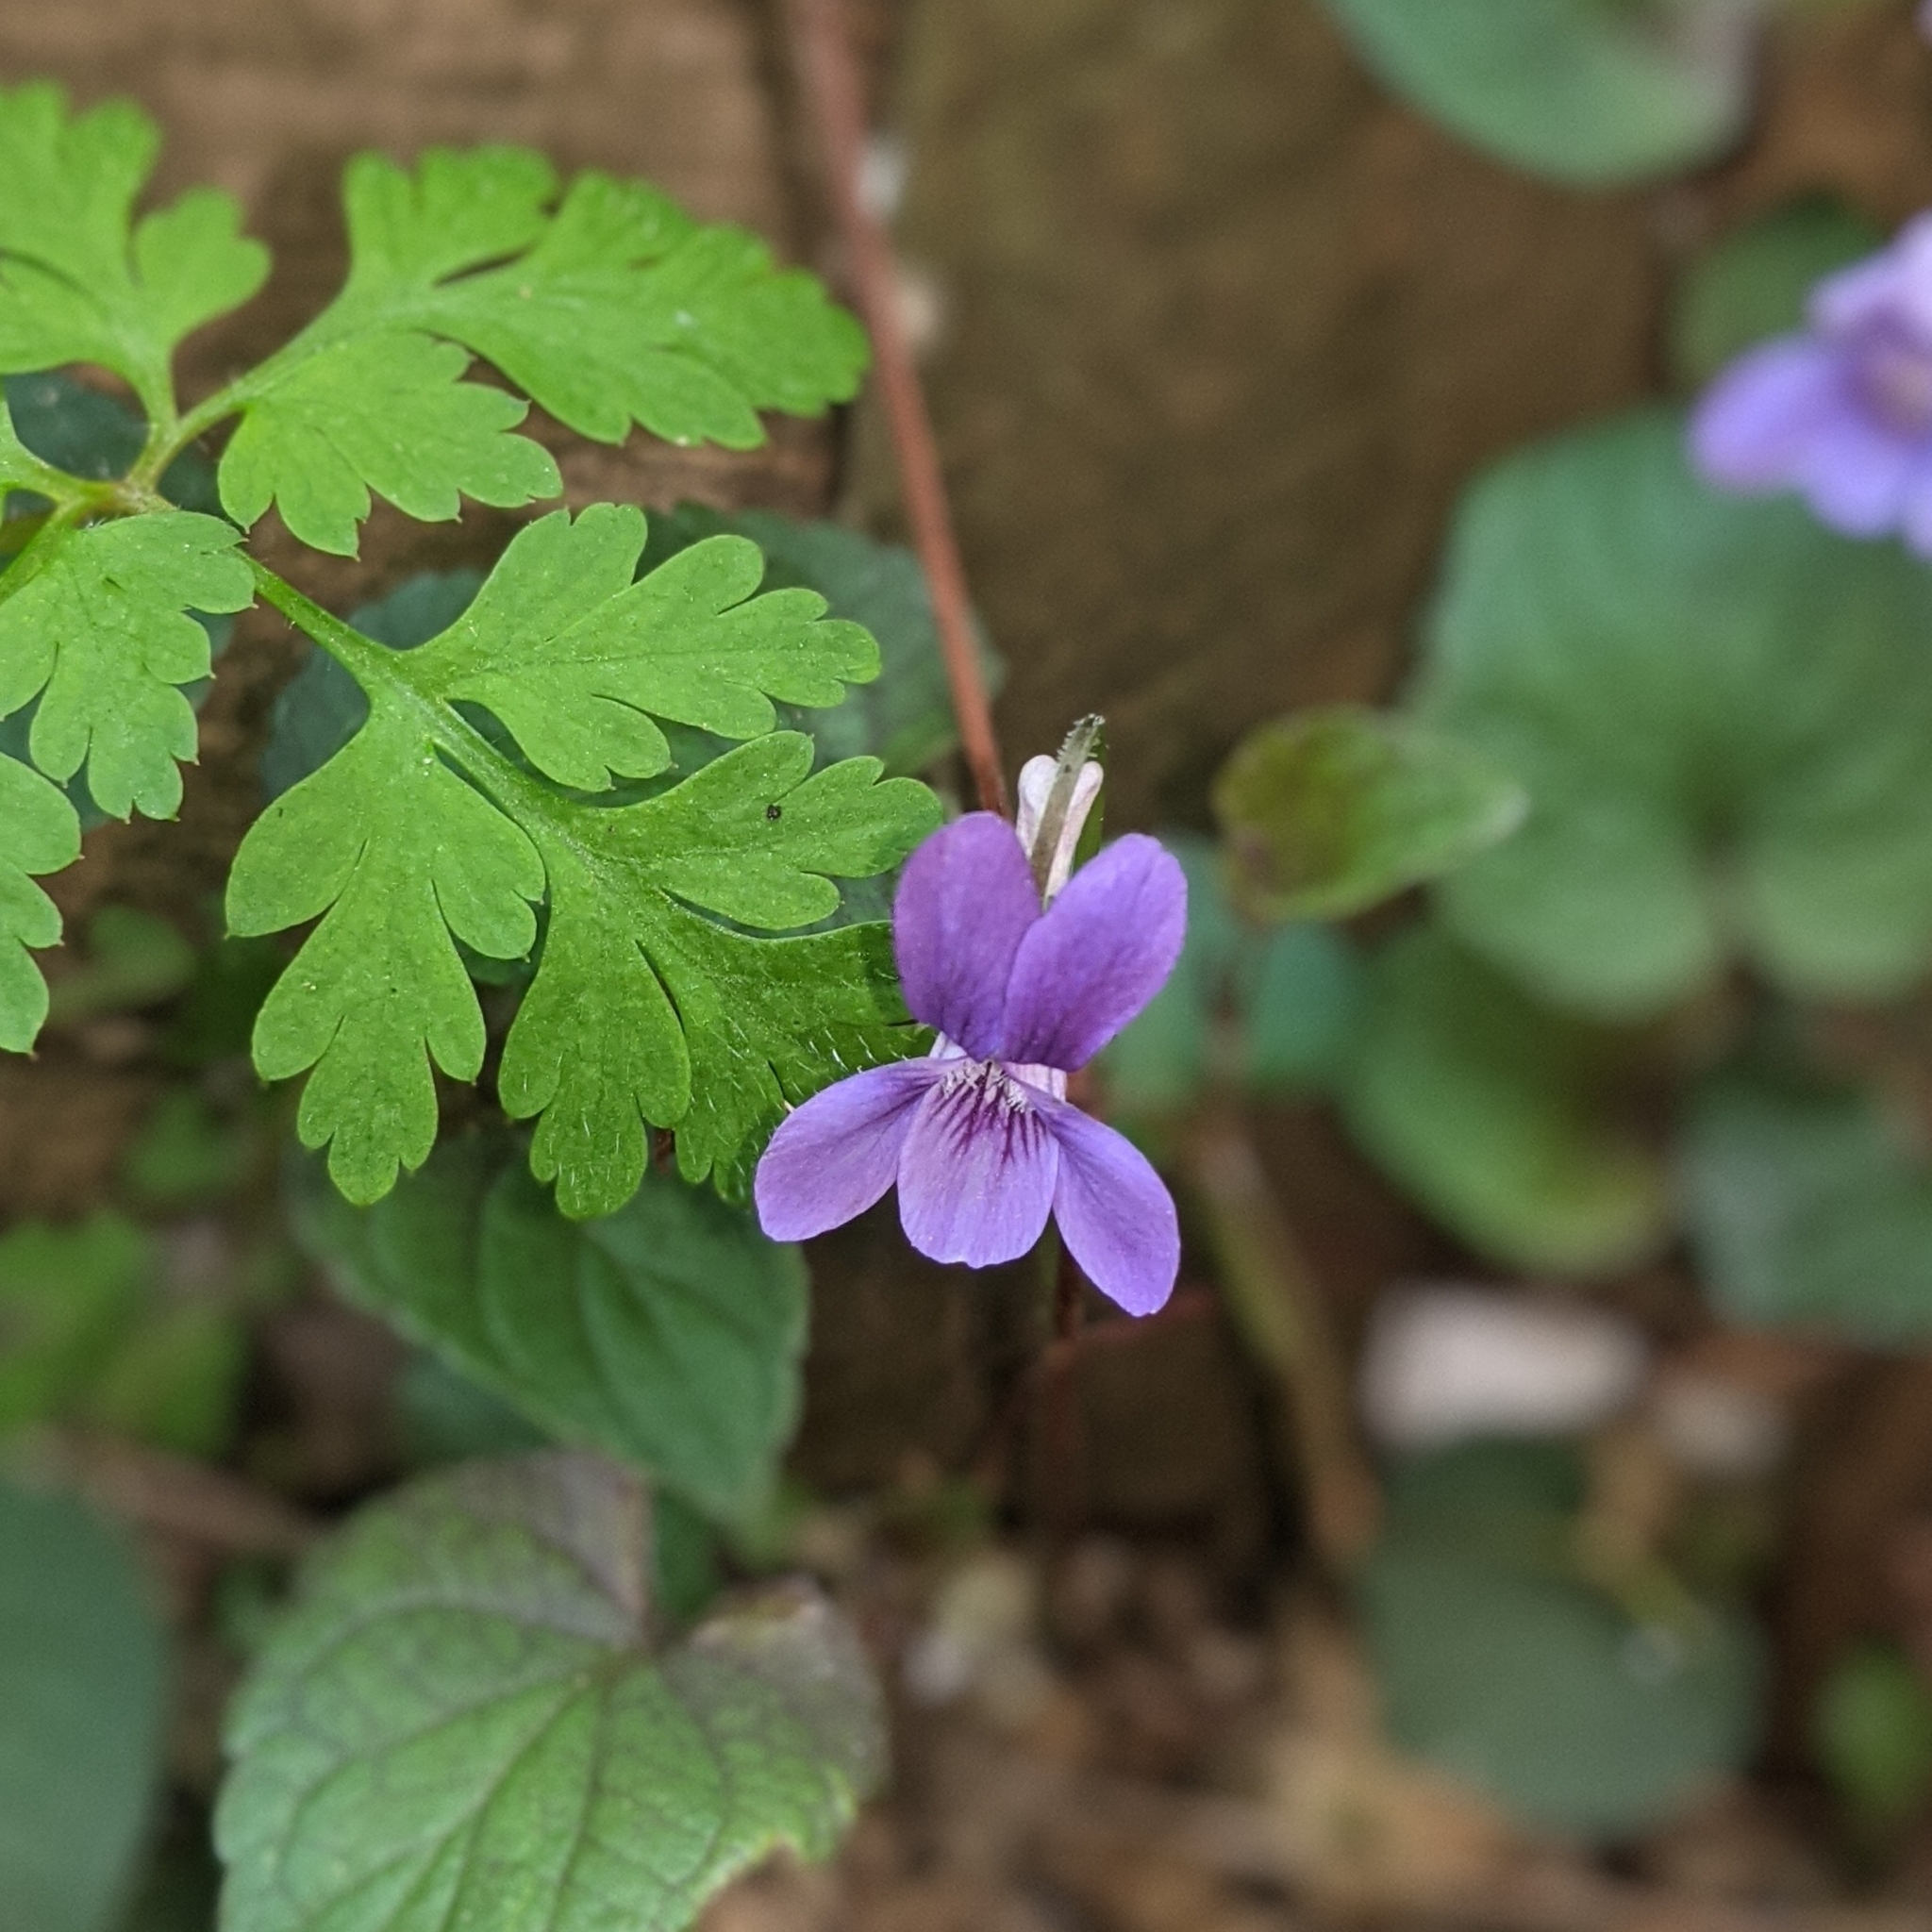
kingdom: Plantae
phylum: Tracheophyta
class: Magnoliopsida
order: Malpighiales
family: Violaceae
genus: Viola
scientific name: Viola riviniana
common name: Common dog-violet
